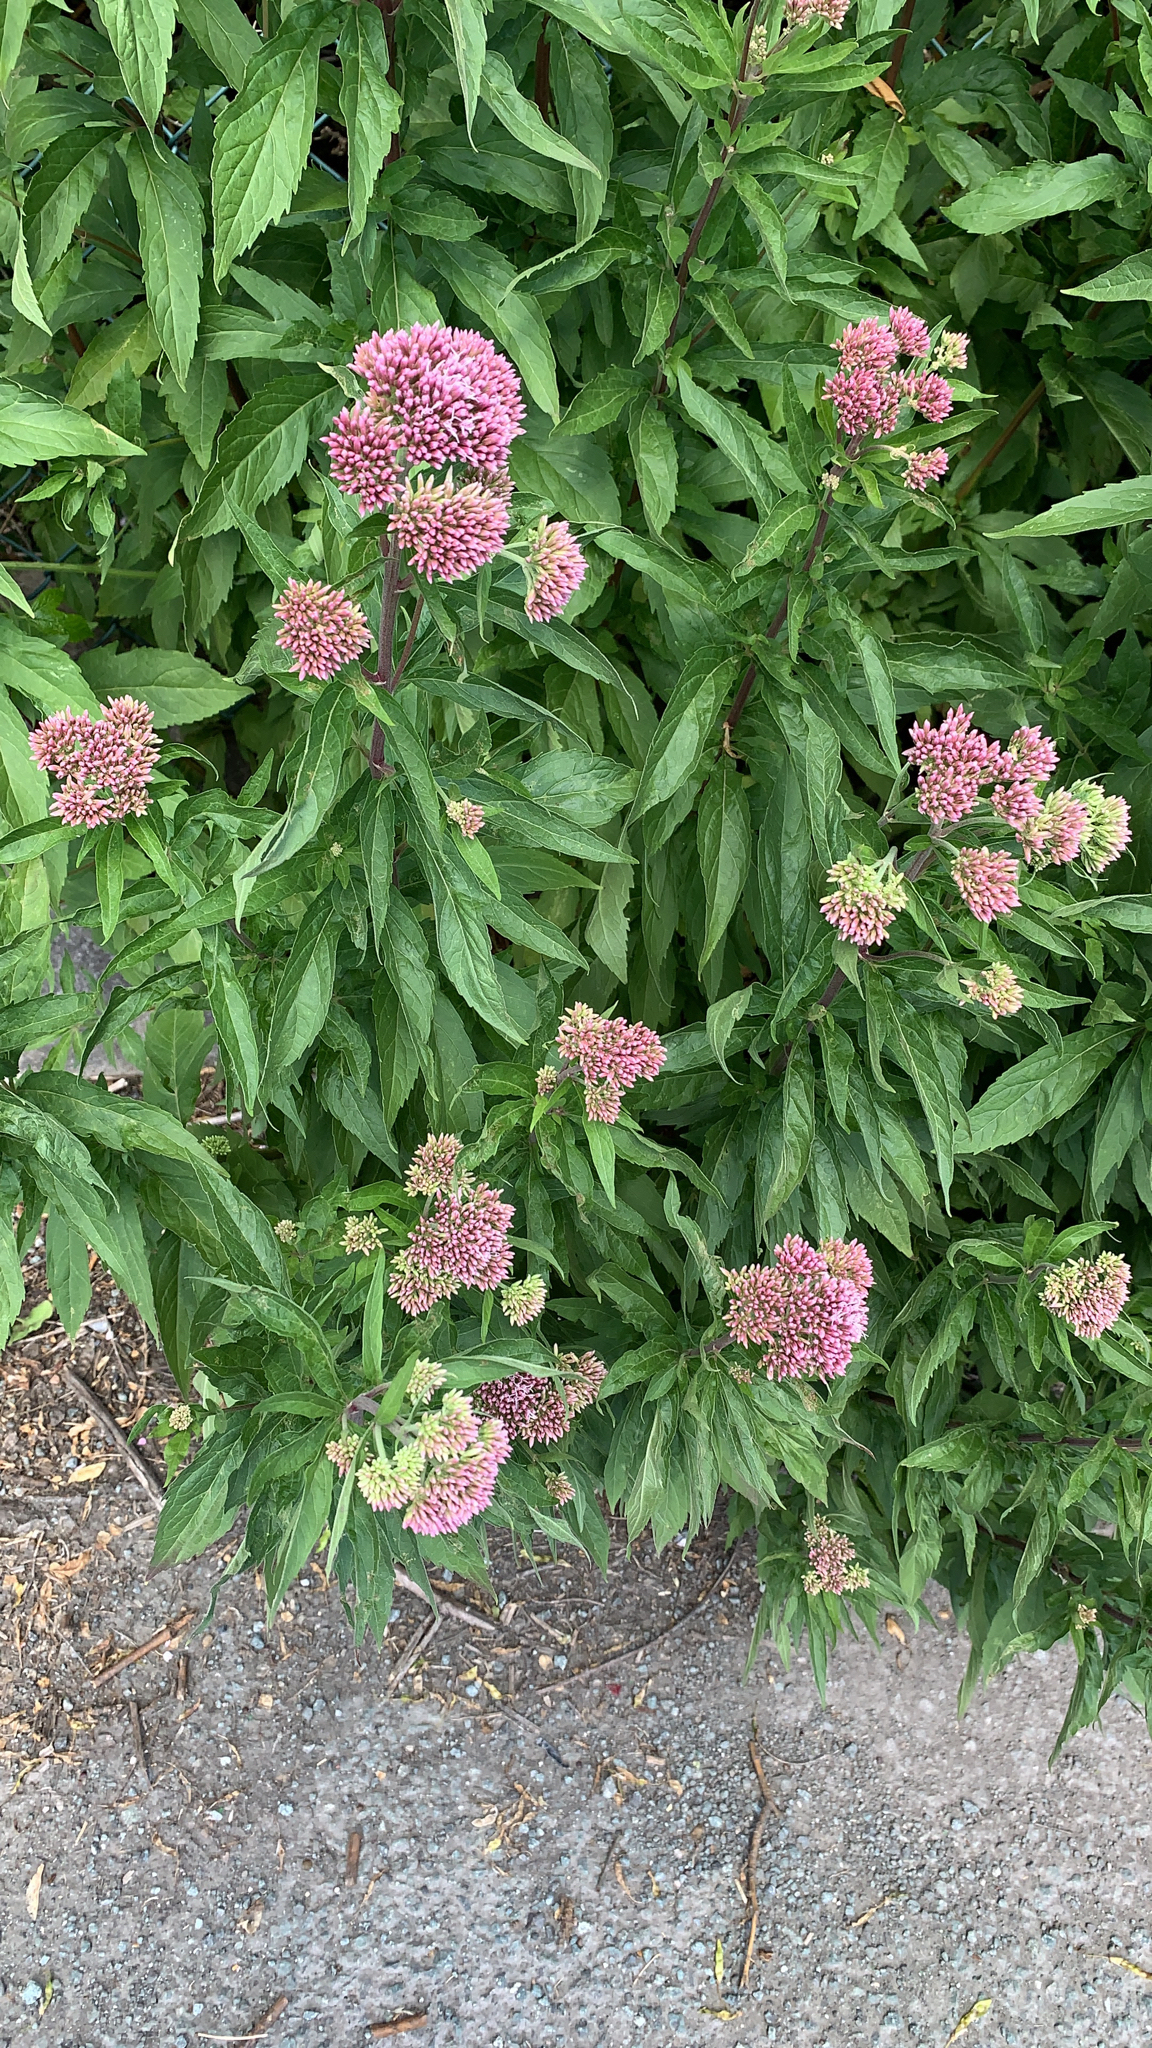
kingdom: Plantae
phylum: Tracheophyta
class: Magnoliopsida
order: Asterales
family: Asteraceae
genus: Eupatorium
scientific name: Eupatorium cannabinum
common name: Hemp-agrimony
